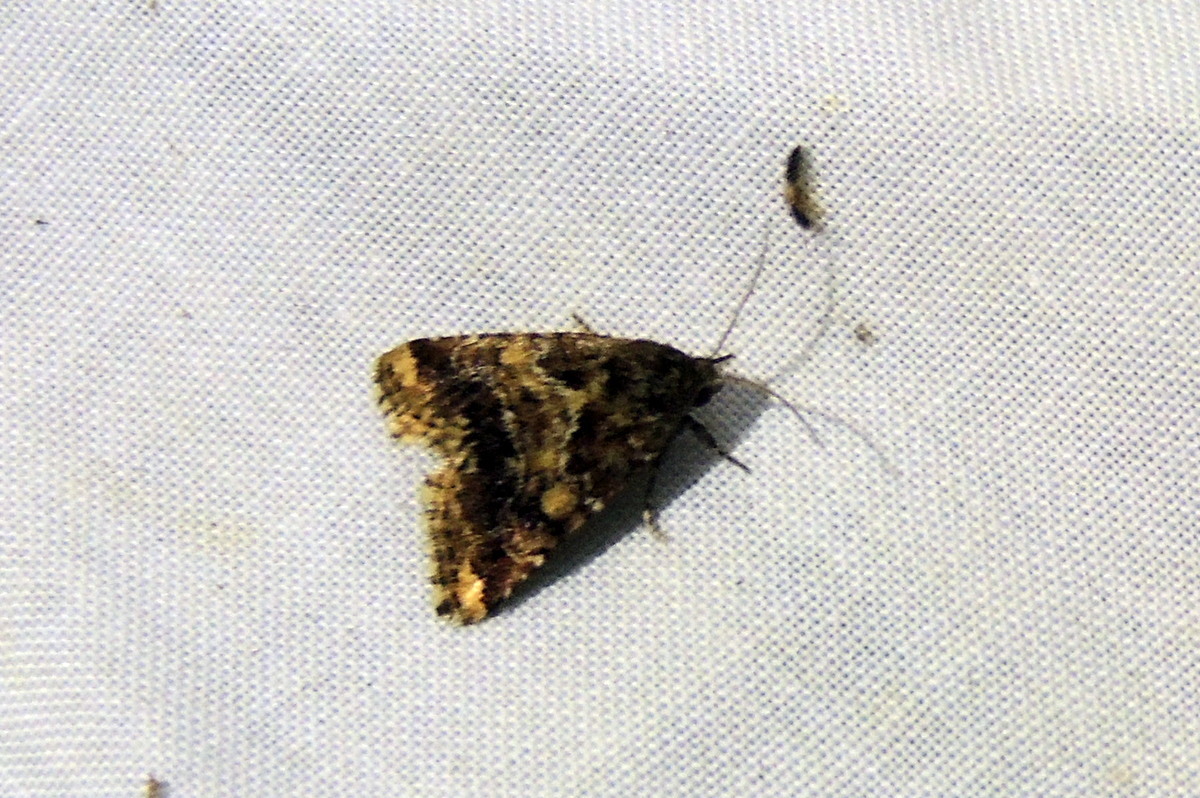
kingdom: Animalia
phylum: Arthropoda
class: Insecta
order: Lepidoptera
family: Noctuidae
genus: Schinia
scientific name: Schinia sordida
